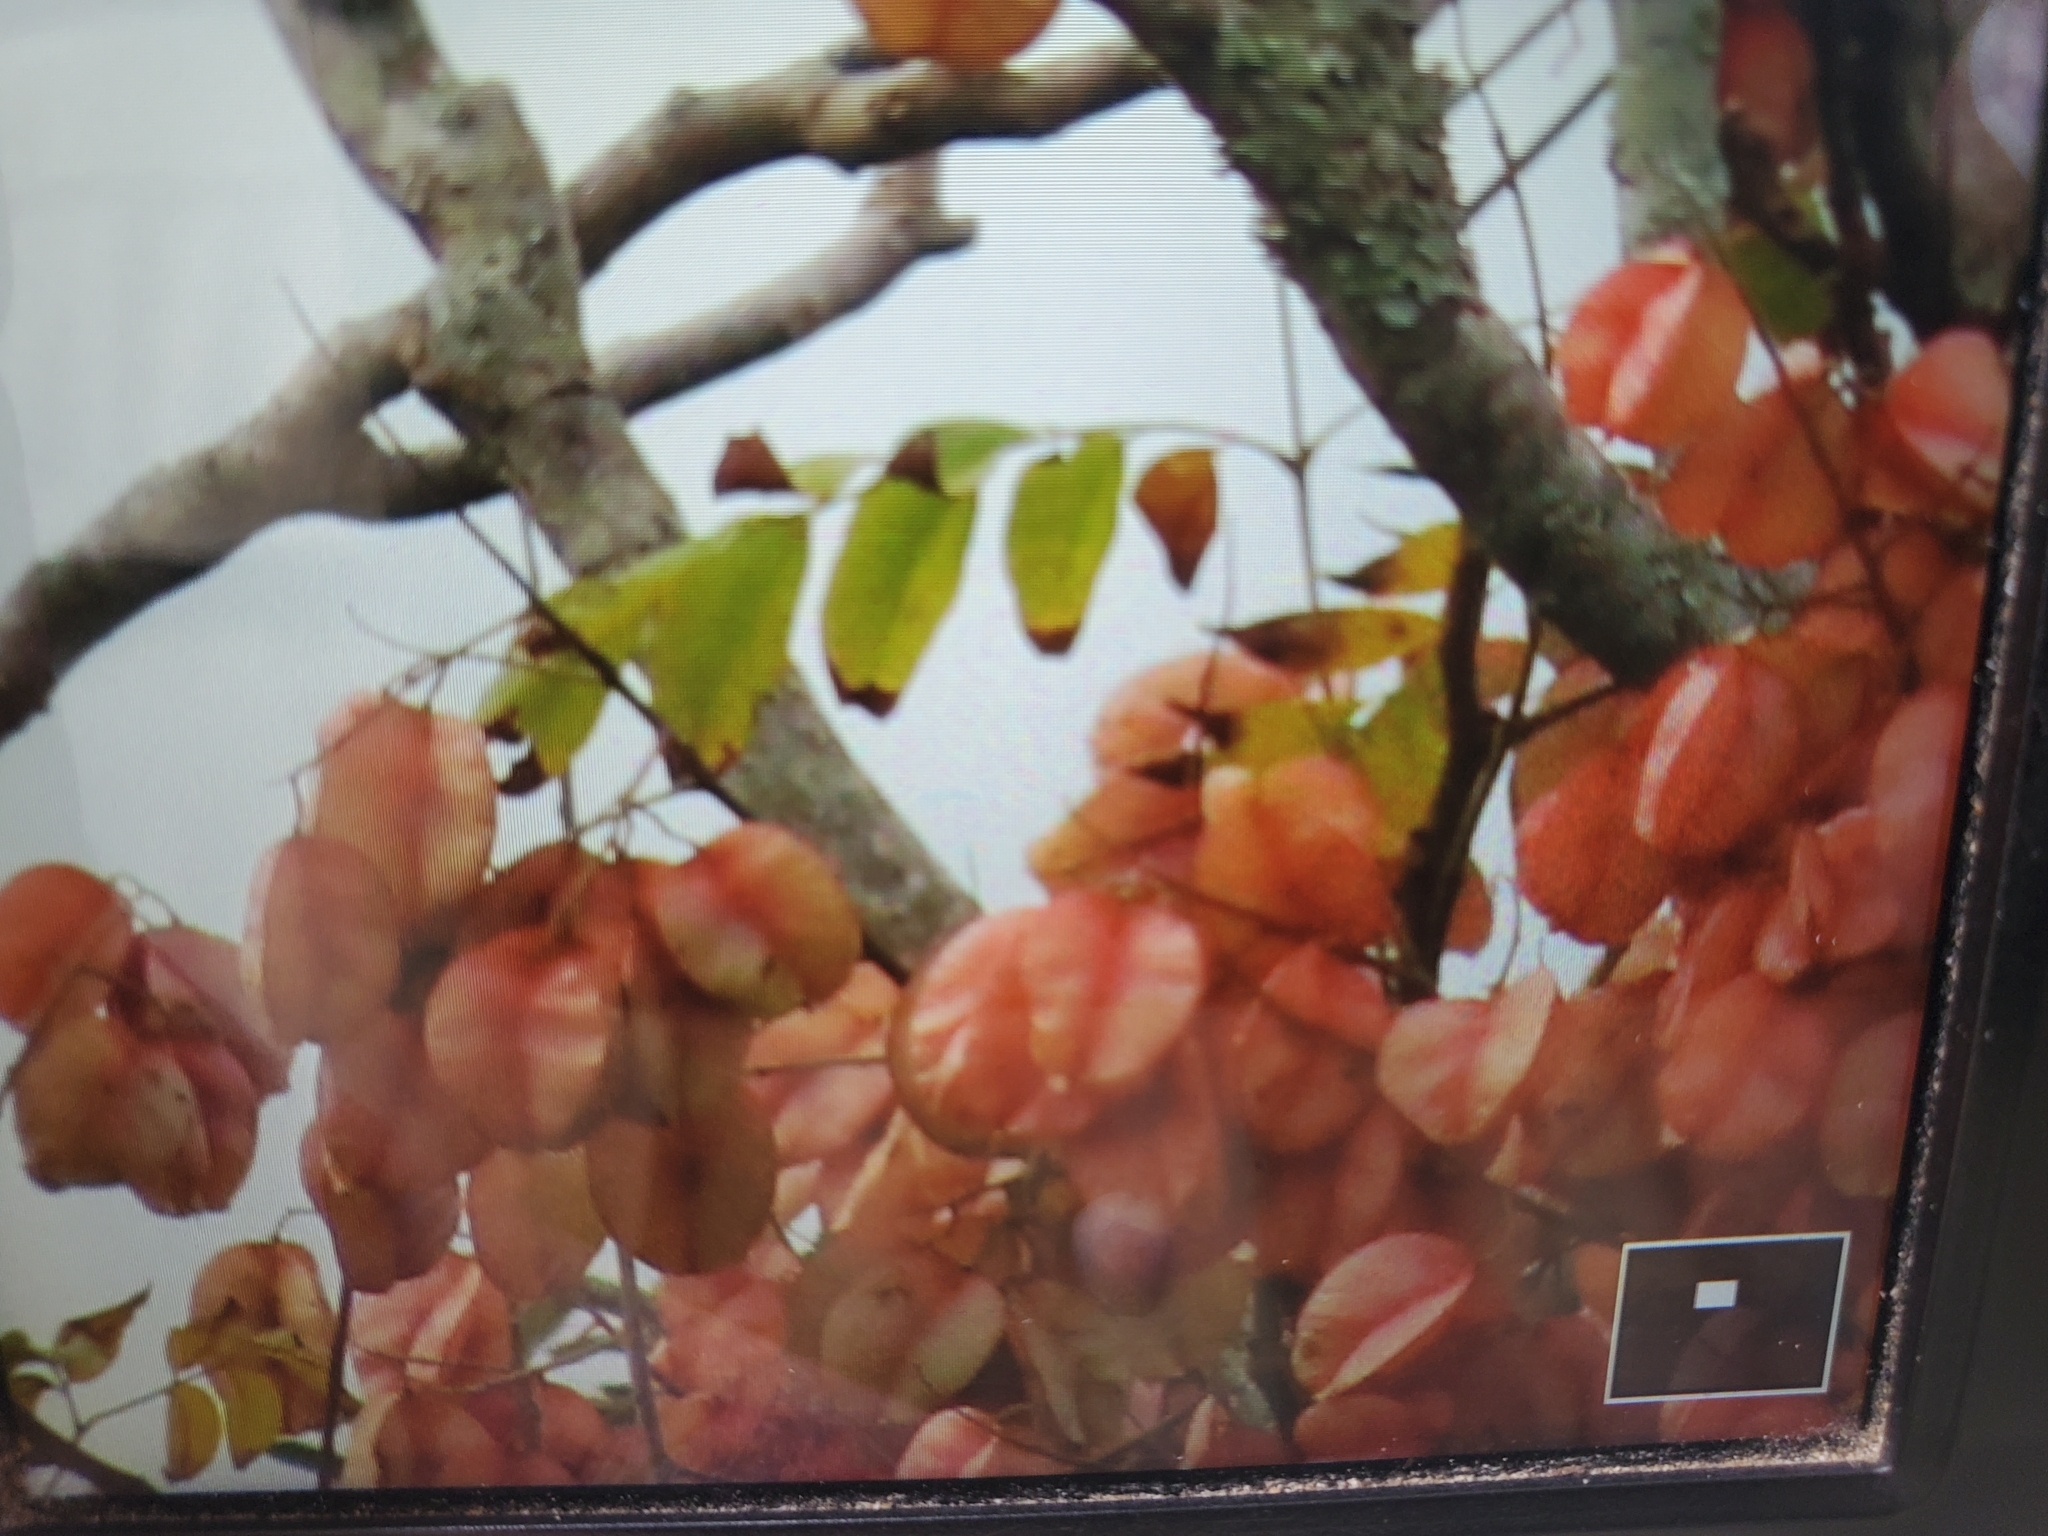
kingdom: Plantae
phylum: Tracheophyta
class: Magnoliopsida
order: Sapindales
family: Sapindaceae
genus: Koelreuteria
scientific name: Koelreuteria bipinnata
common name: Goldenrain tree
